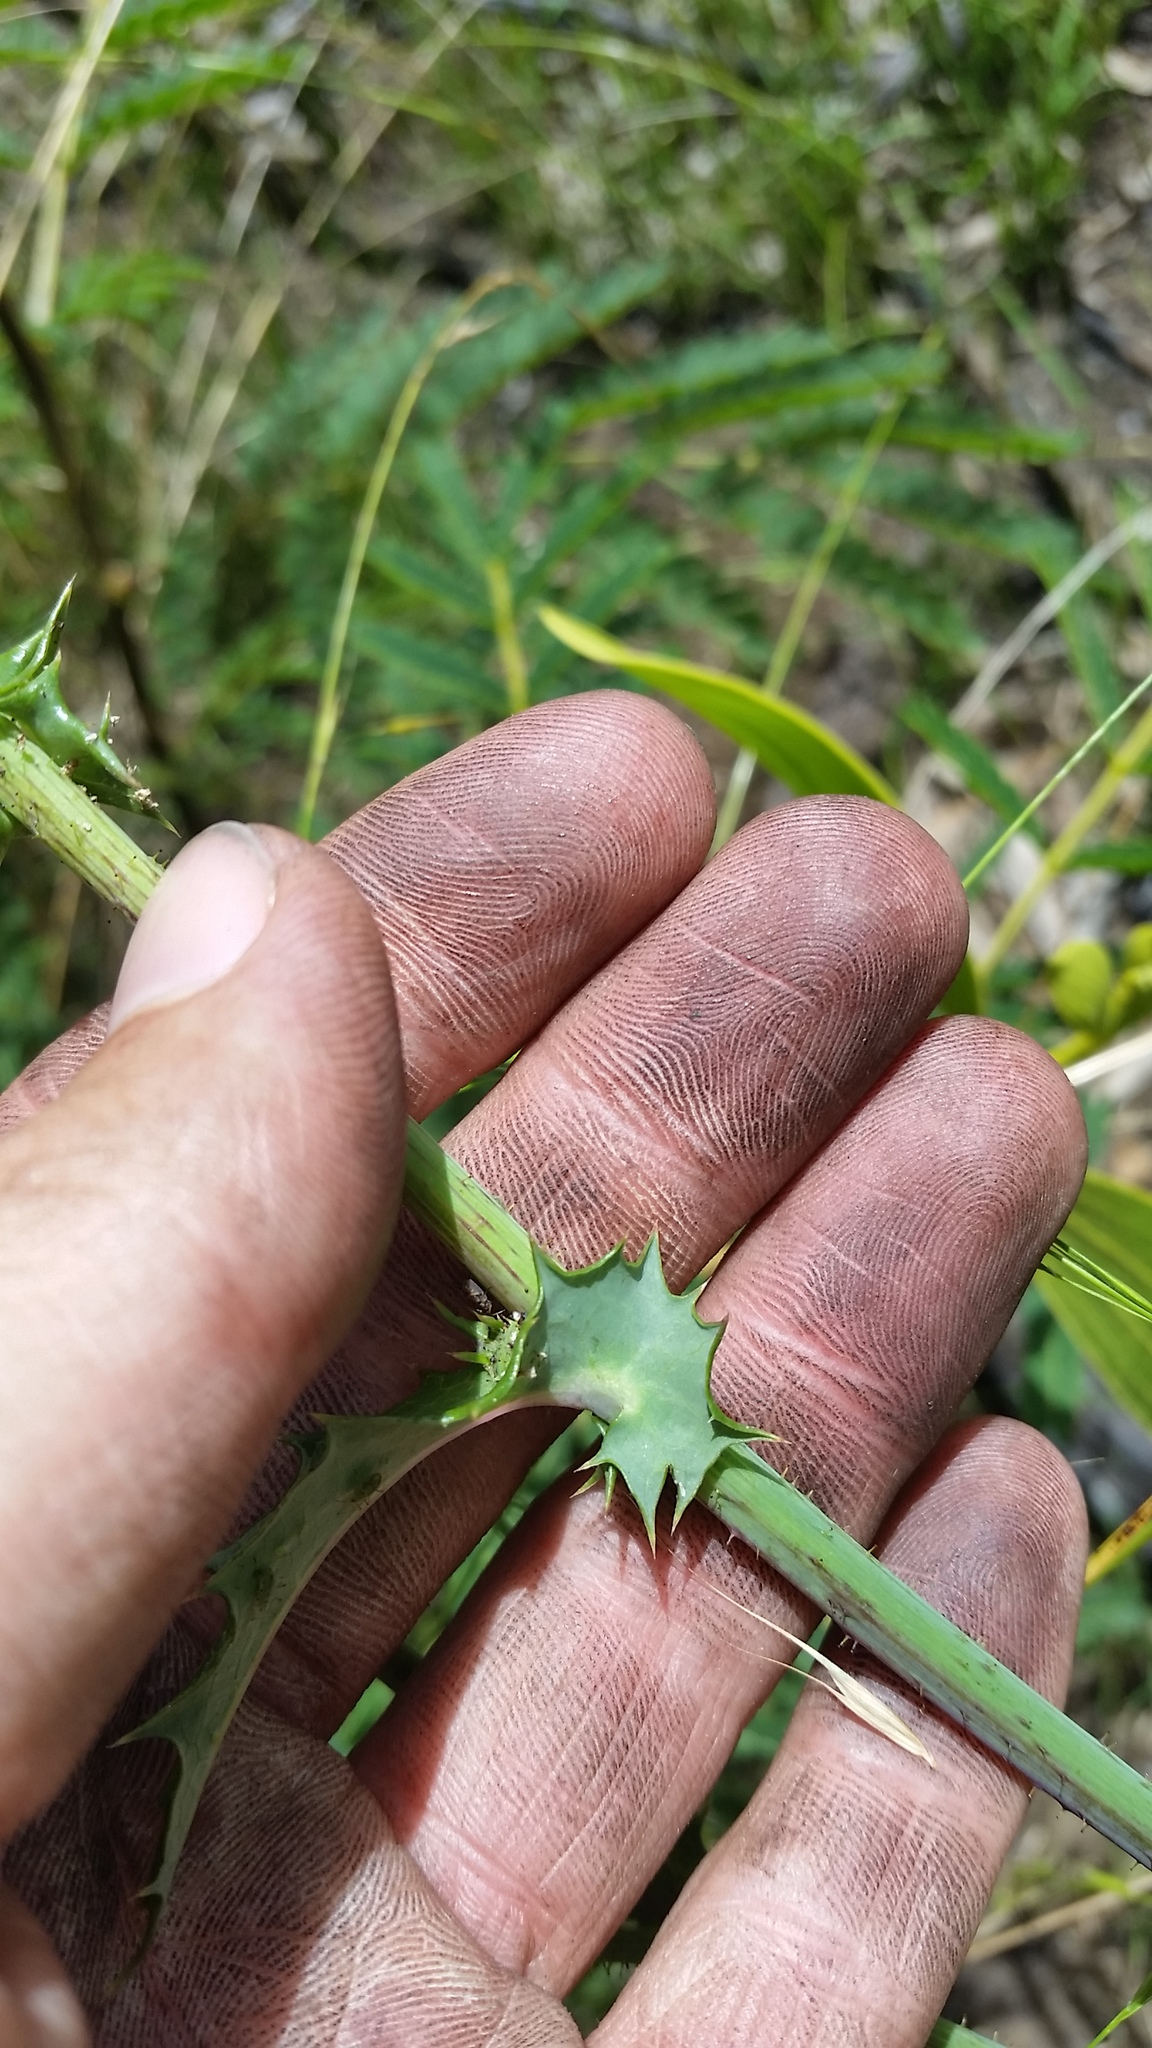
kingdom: Plantae
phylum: Tracheophyta
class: Magnoliopsida
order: Asterales
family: Asteraceae
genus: Sonchus
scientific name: Sonchus asper
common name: Prickly sow-thistle
